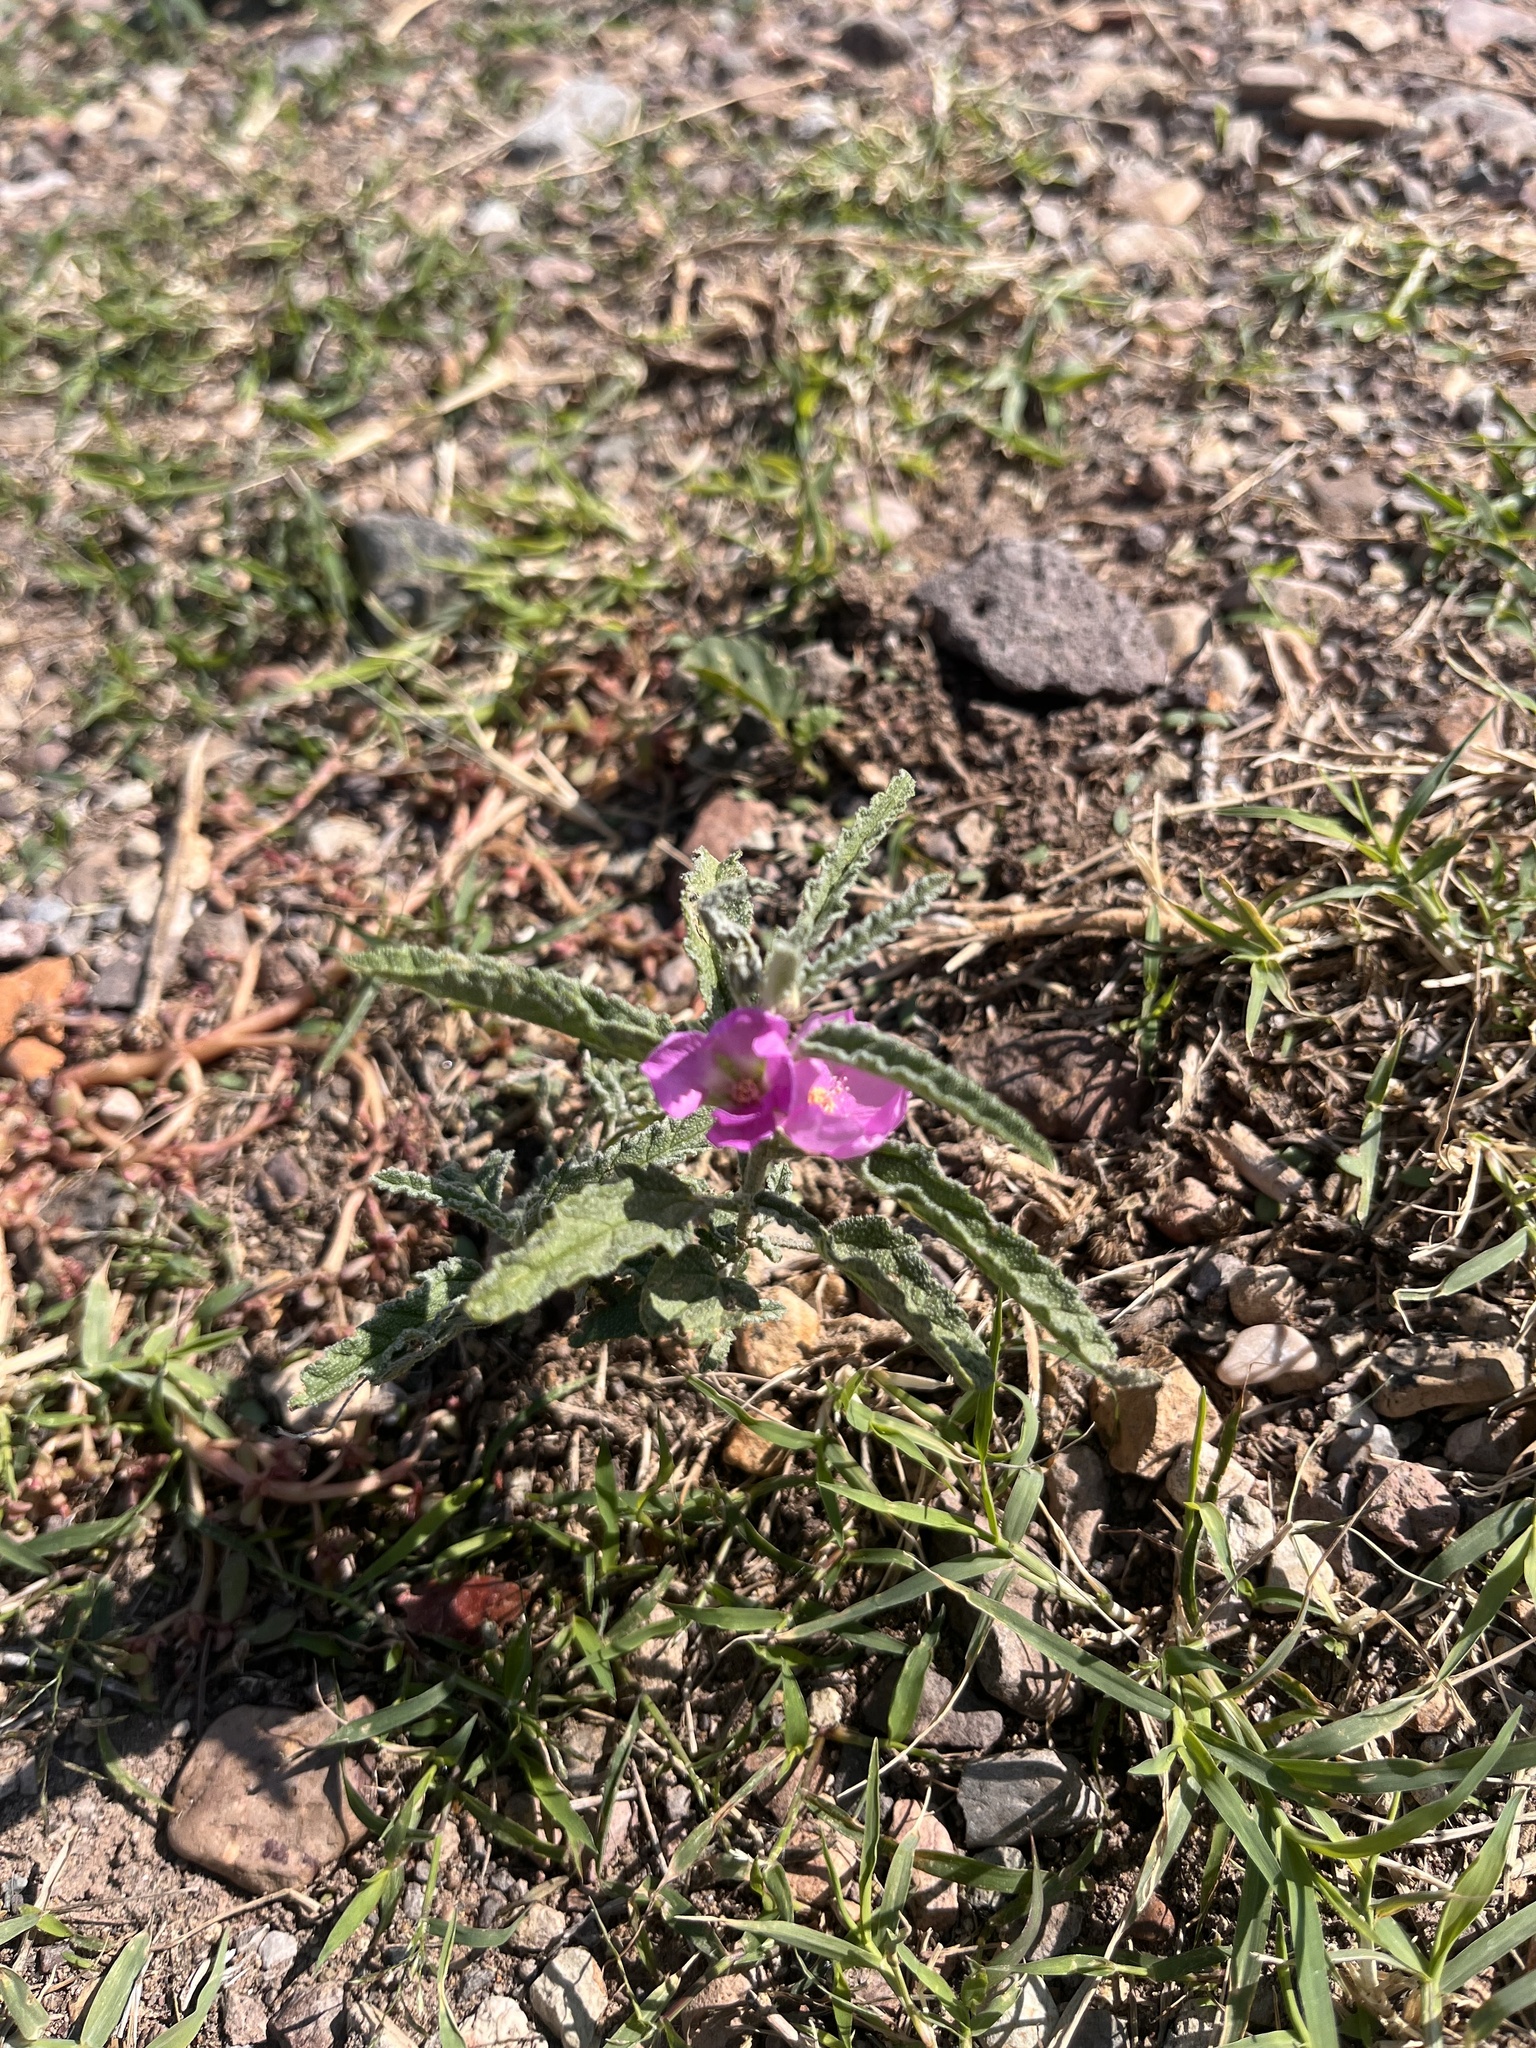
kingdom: Plantae
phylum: Tracheophyta
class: Magnoliopsida
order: Malvales
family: Malvaceae
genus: Sphaeralcea
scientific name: Sphaeralcea angustifolia
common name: Copper globe-mallow
